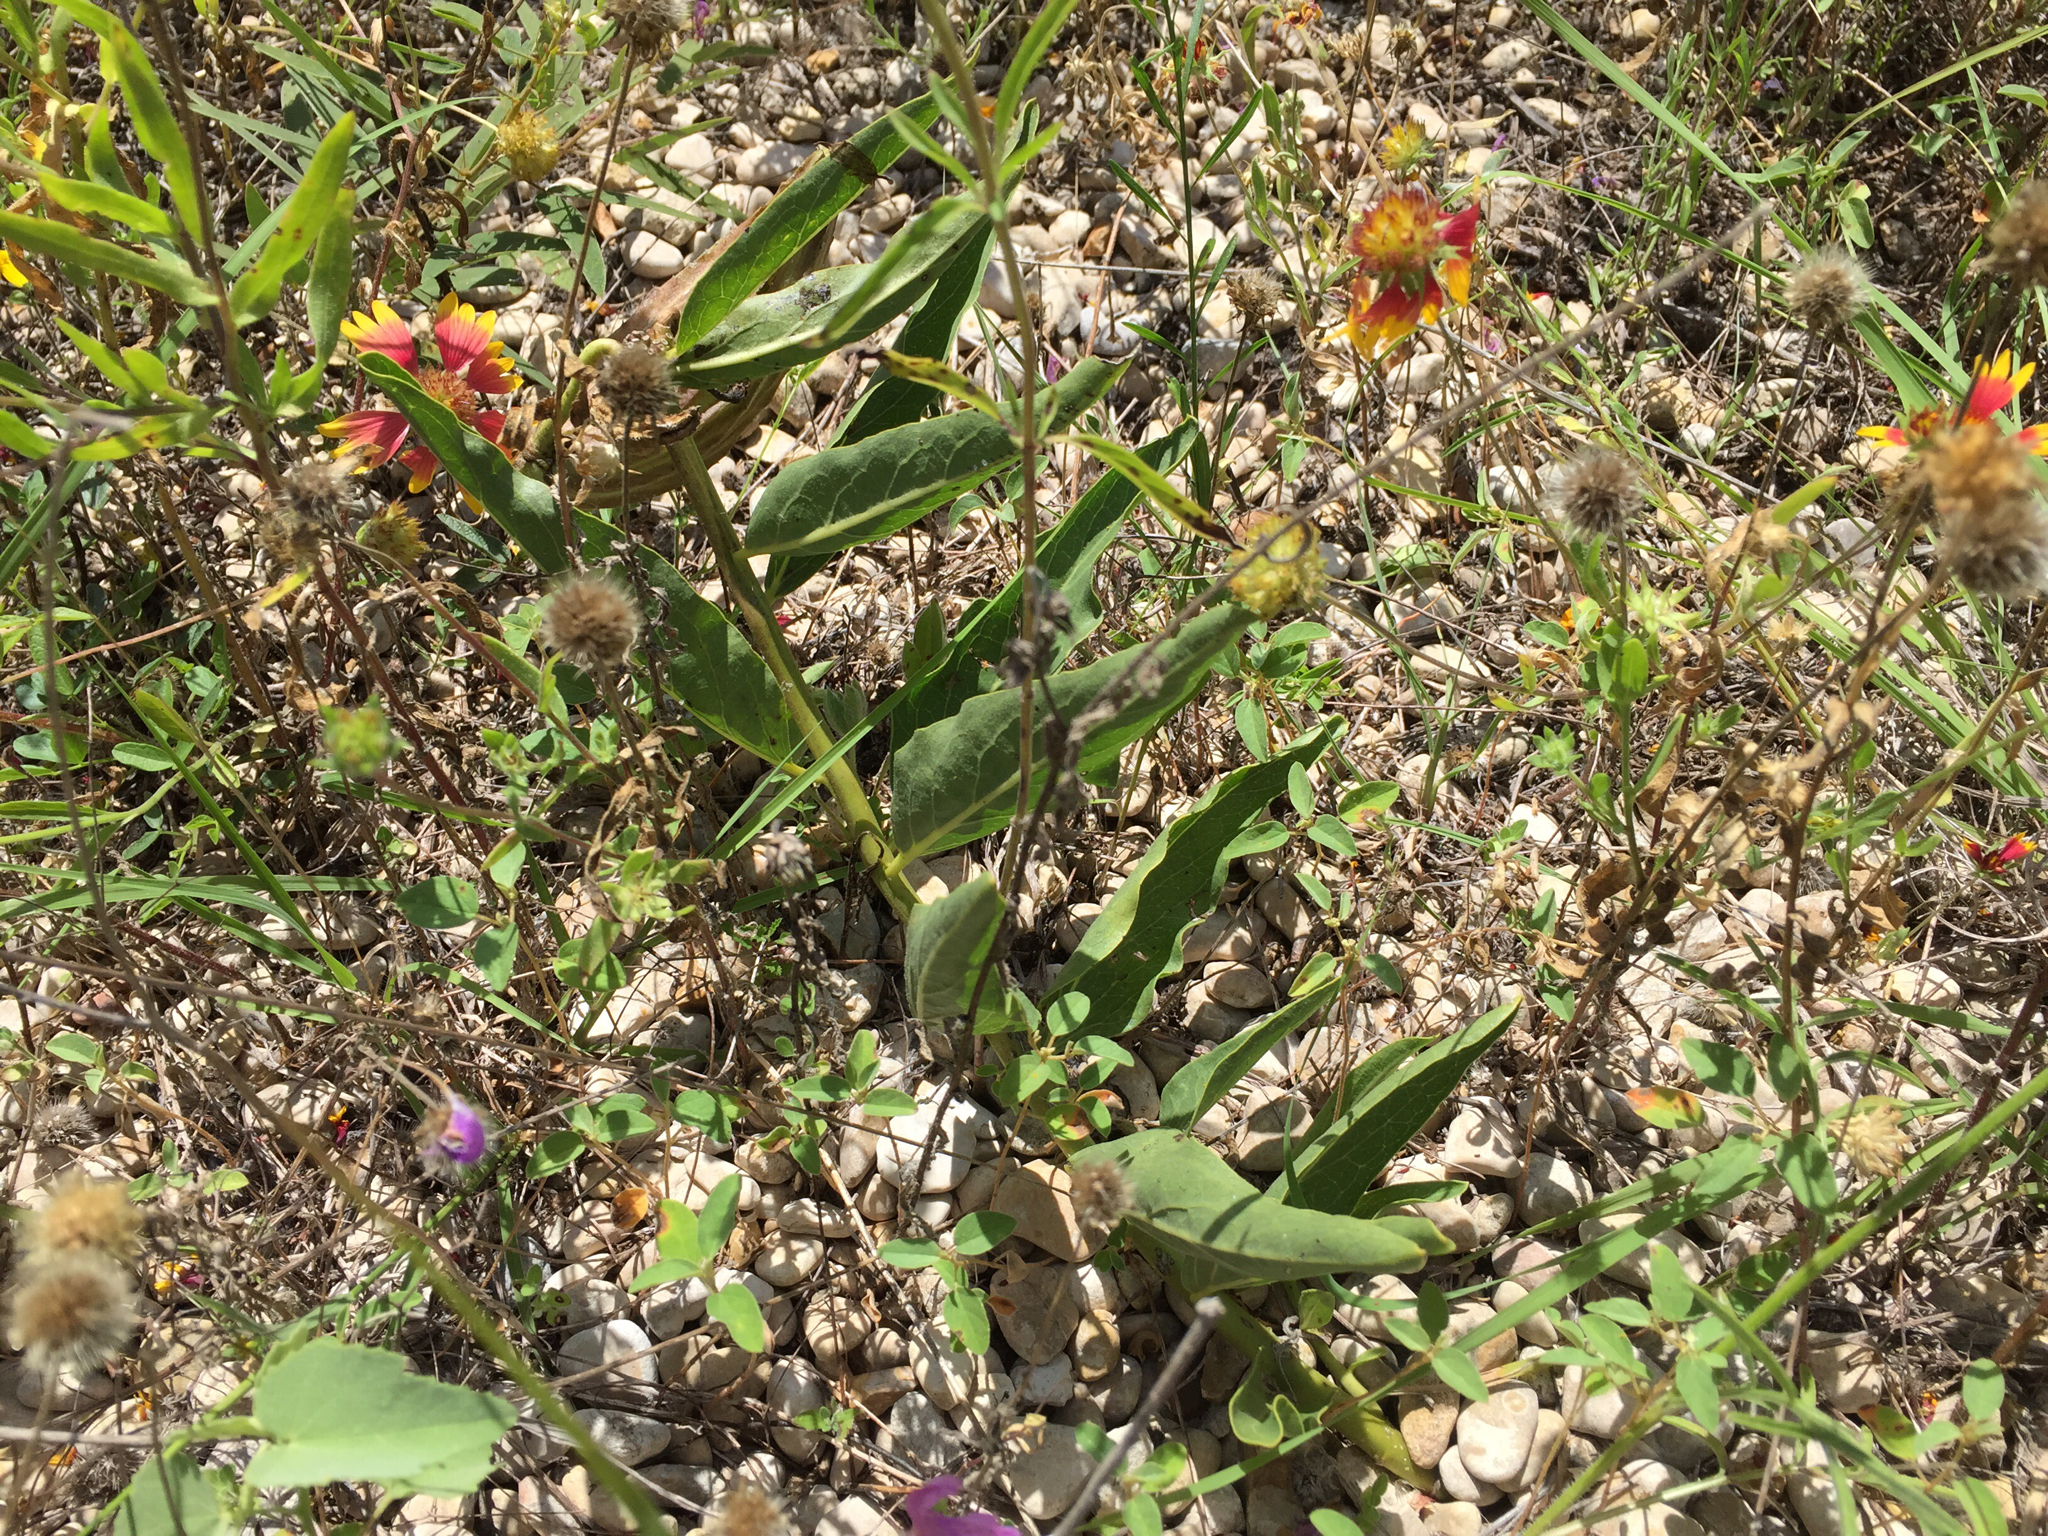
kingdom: Plantae
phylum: Tracheophyta
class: Magnoliopsida
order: Gentianales
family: Apocynaceae
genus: Asclepias
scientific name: Asclepias asperula
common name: Antelope horns
